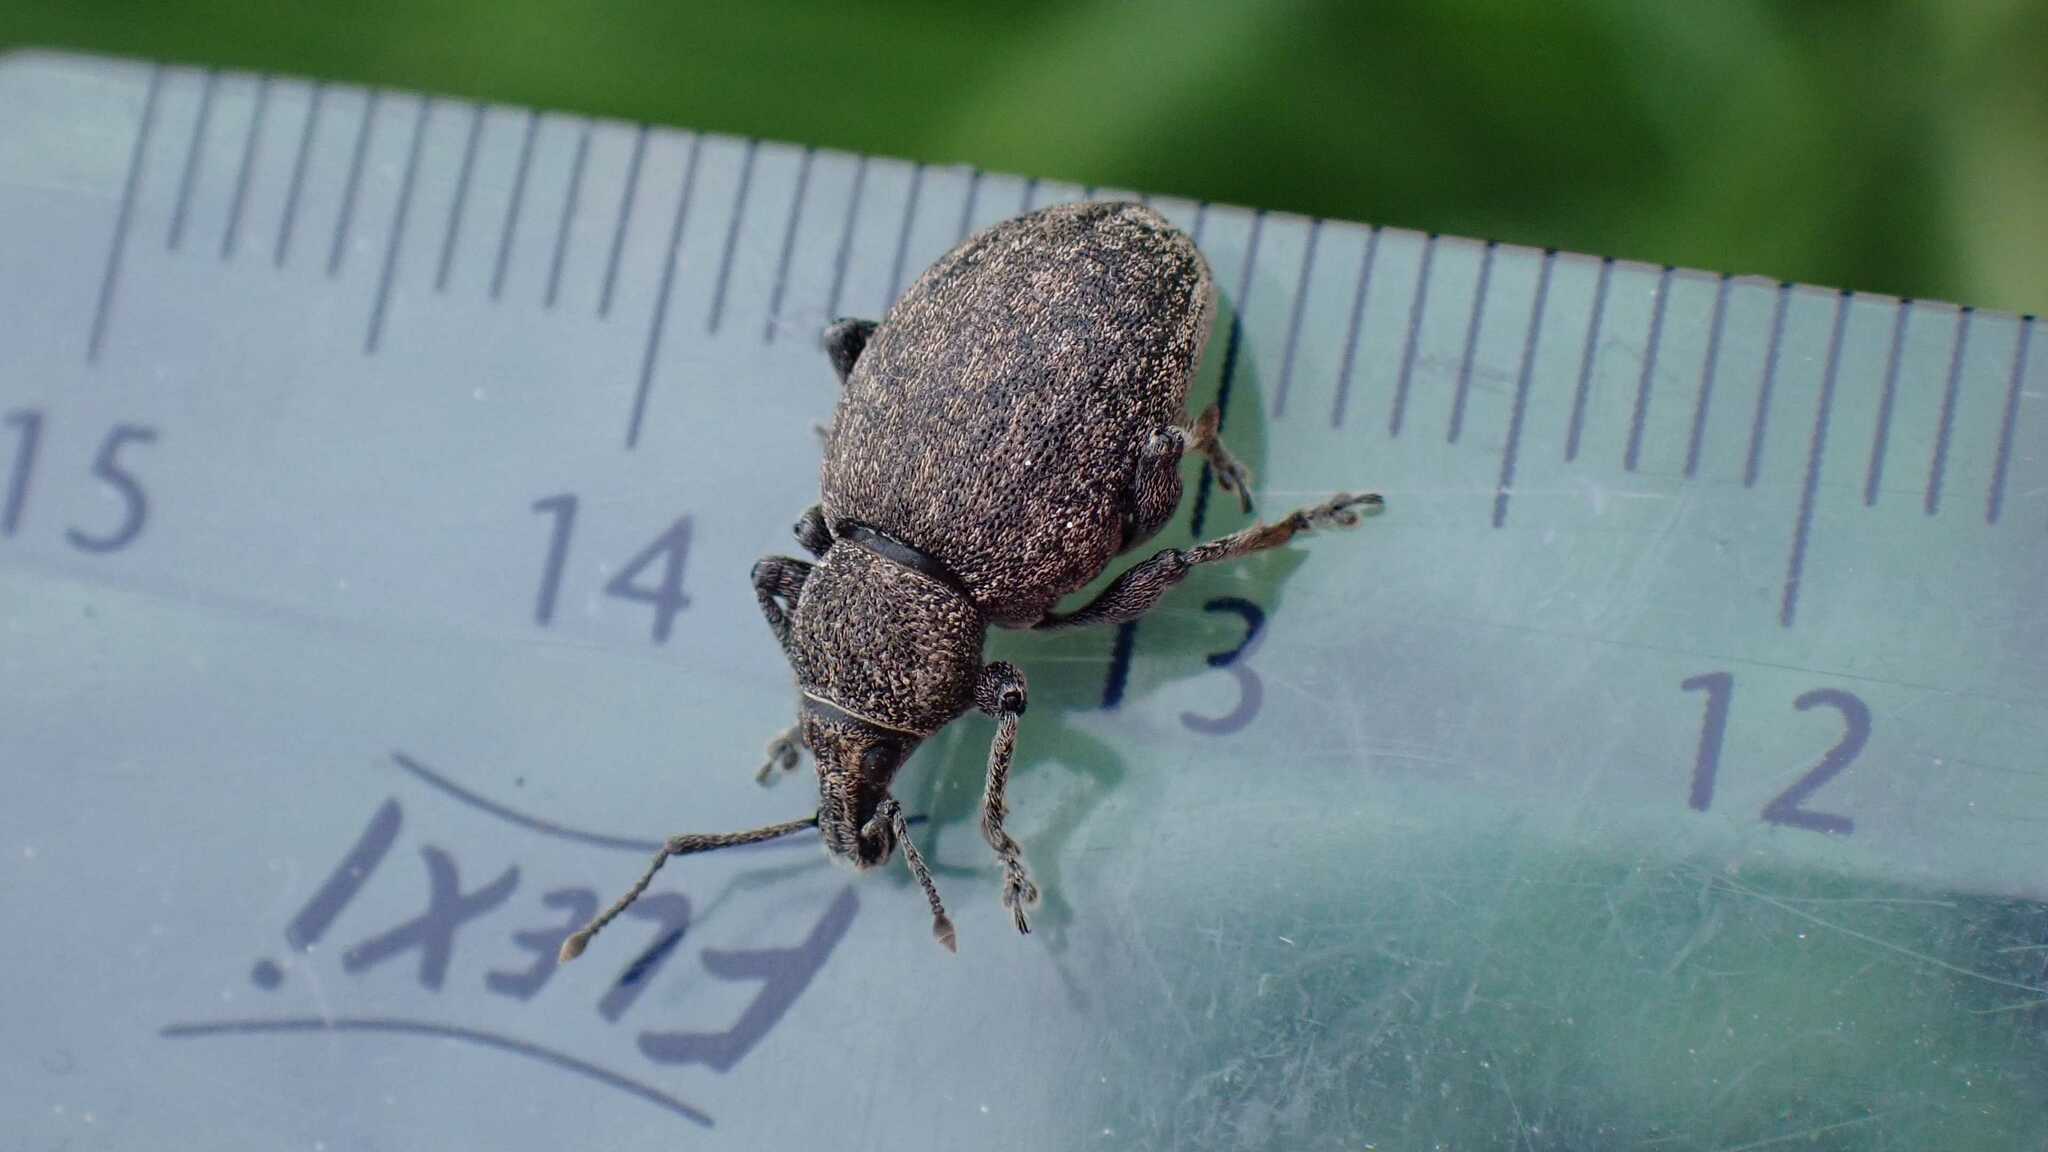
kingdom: Animalia
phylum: Arthropoda
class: Insecta
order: Coleoptera
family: Curculionidae
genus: Otiorhynchus
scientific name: Otiorhynchus ligustici
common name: Weevil
